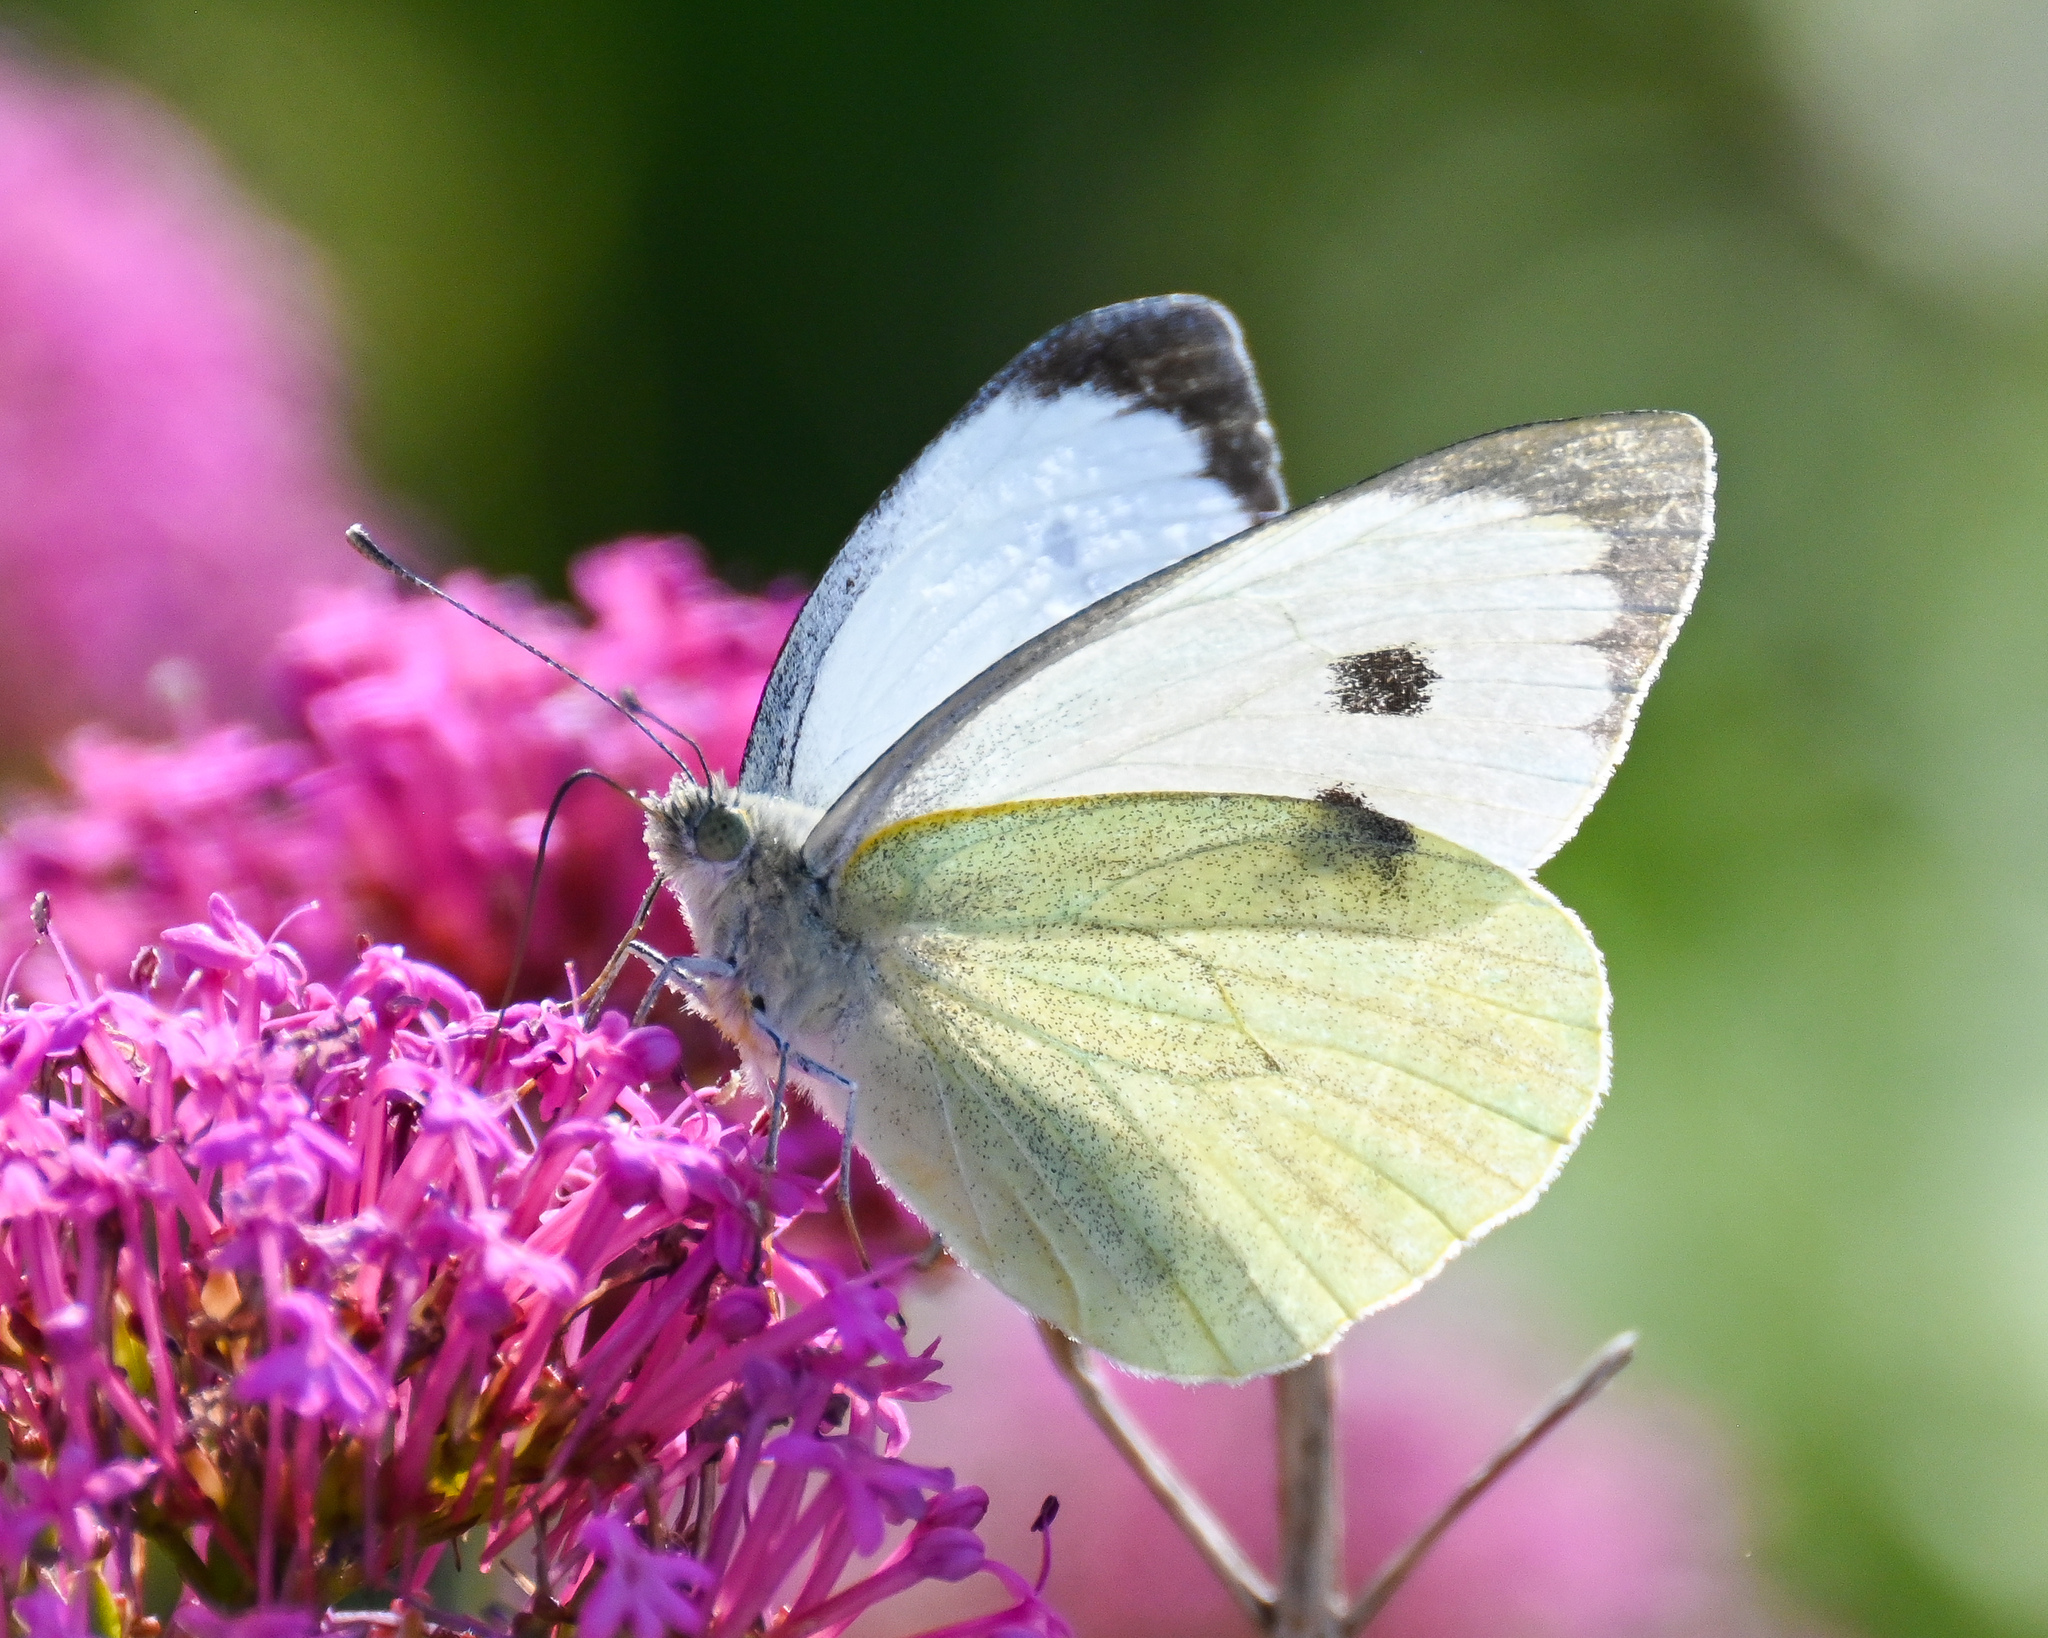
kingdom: Animalia
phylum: Arthropoda
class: Insecta
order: Lepidoptera
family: Pieridae
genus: Pieris
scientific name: Pieris brassicae
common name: Large white
